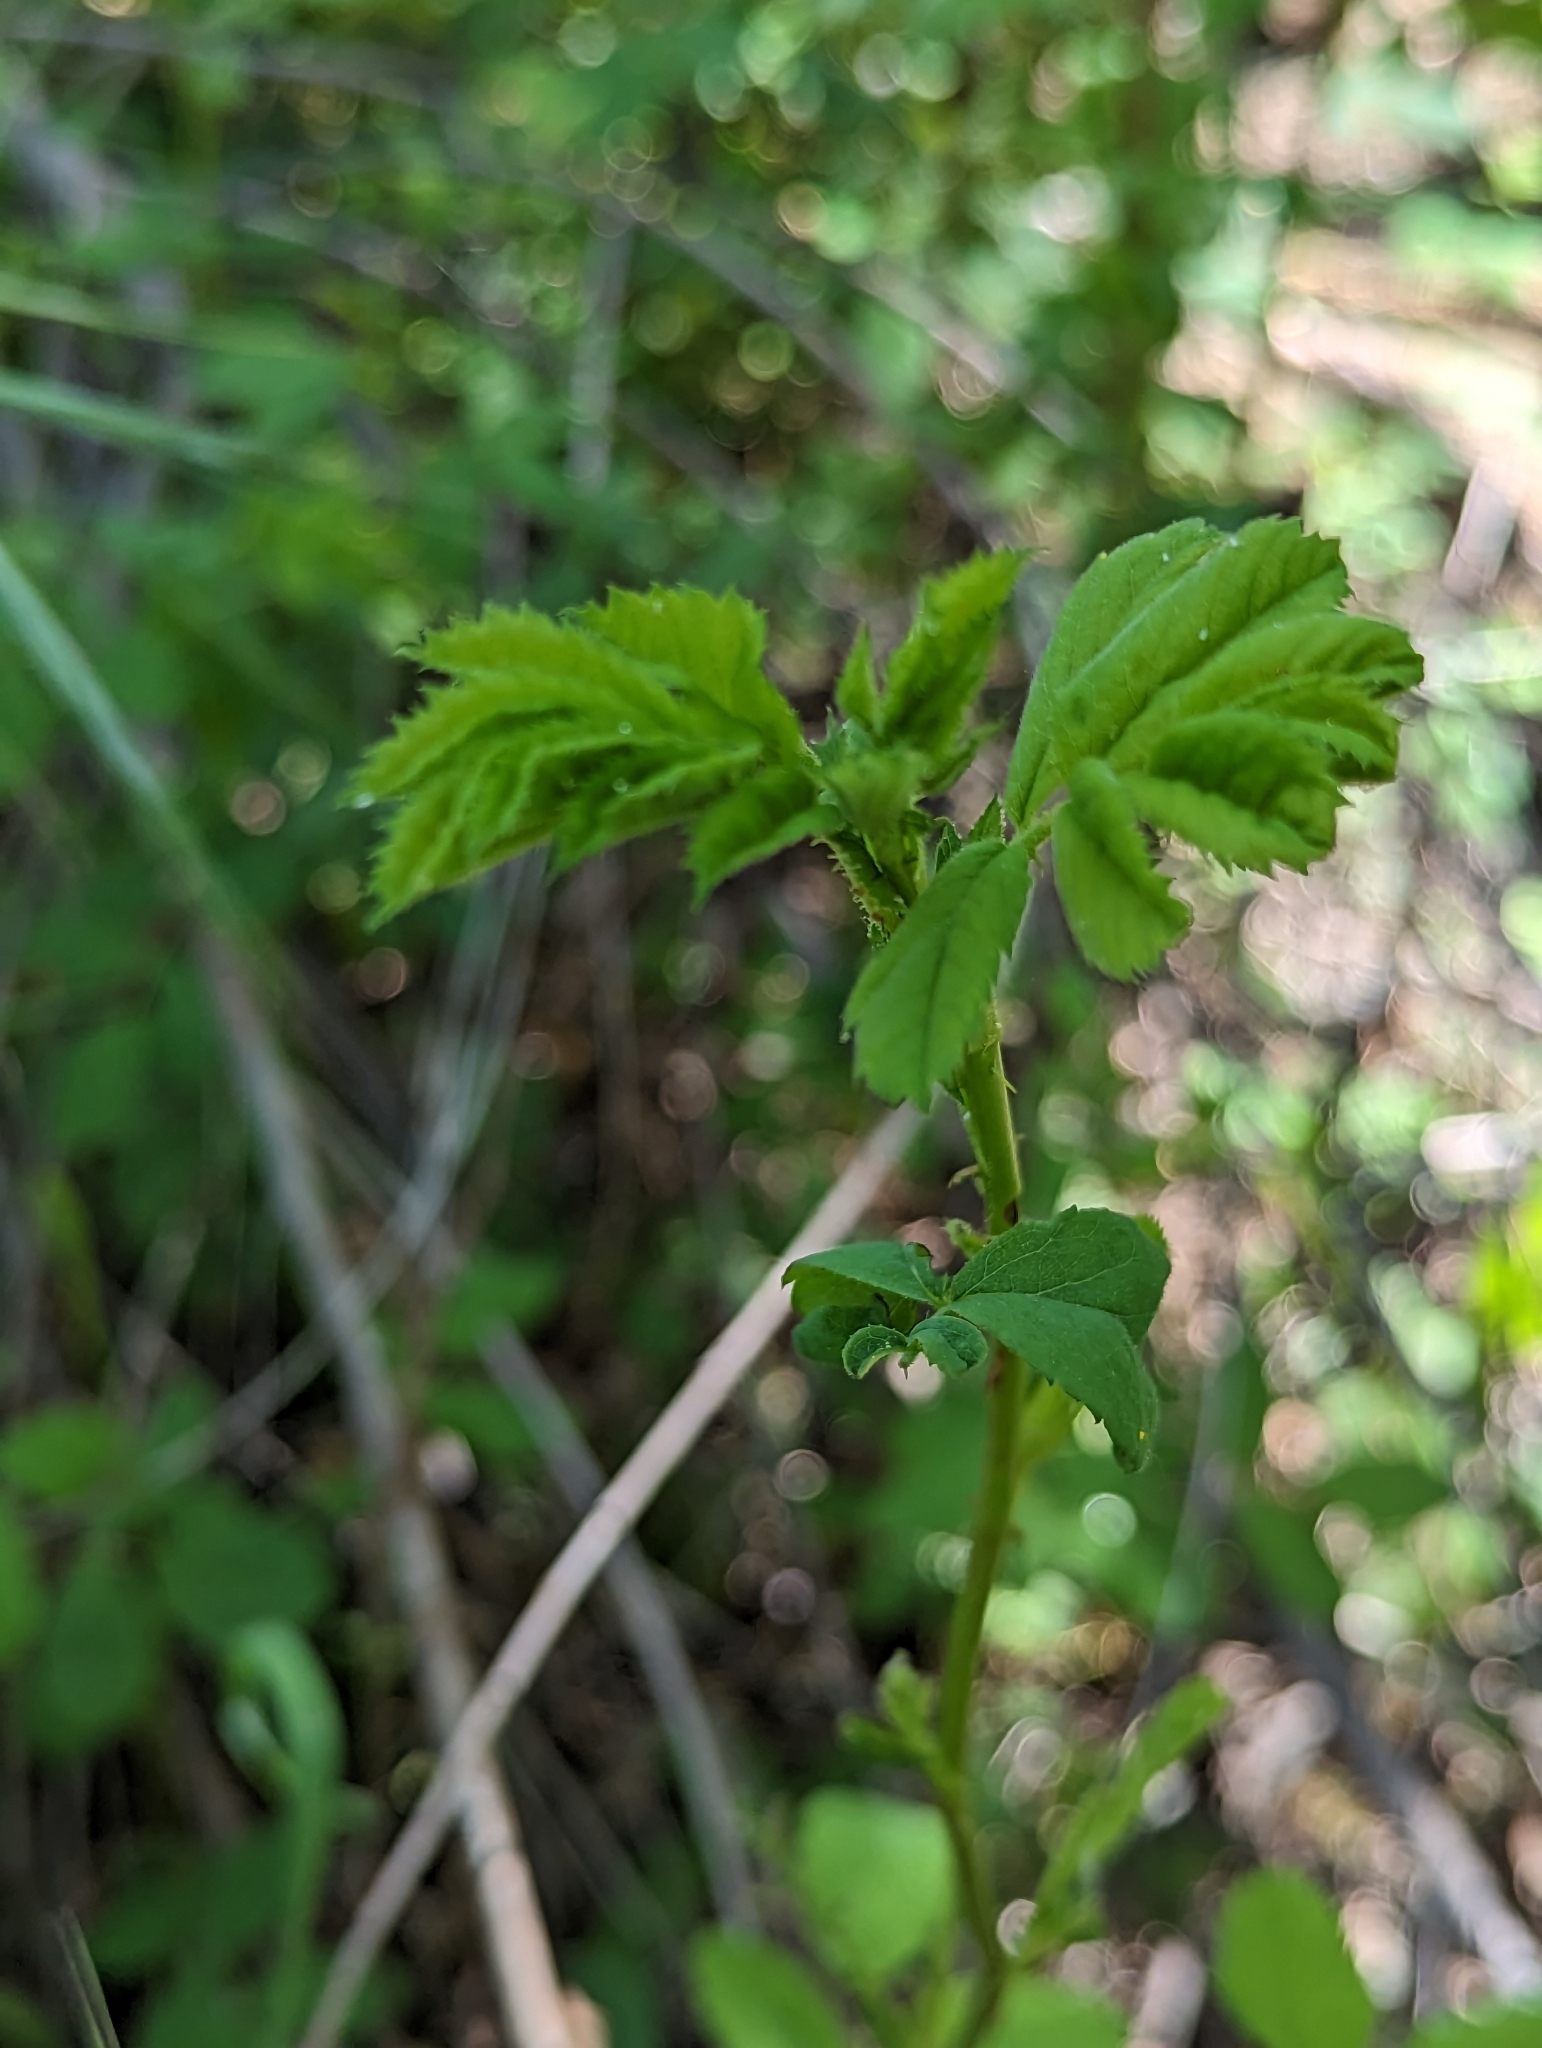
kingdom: Plantae
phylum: Tracheophyta
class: Magnoliopsida
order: Rosales
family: Rosaceae
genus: Rosa
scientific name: Rosa californica
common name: California rose
